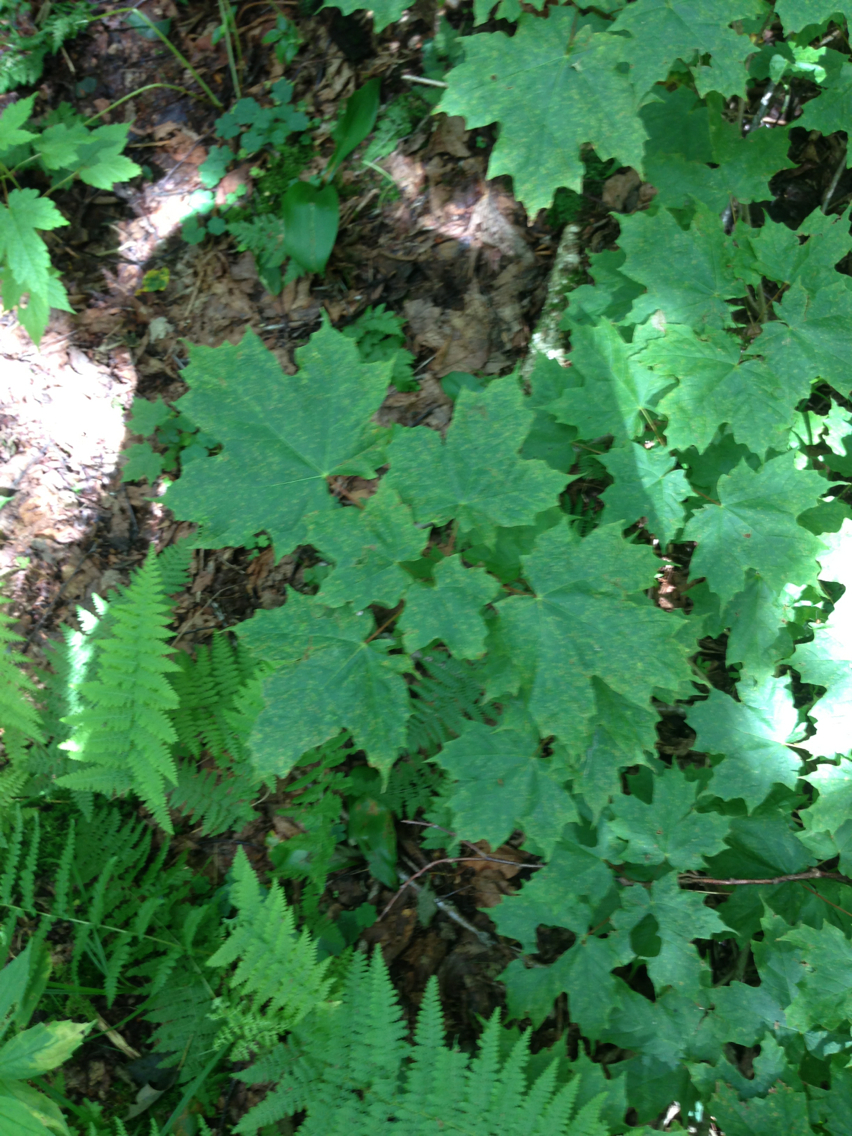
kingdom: Plantae
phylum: Tracheophyta
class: Magnoliopsida
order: Sapindales
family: Sapindaceae
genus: Acer
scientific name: Acer saccharum
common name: Sugar maple
